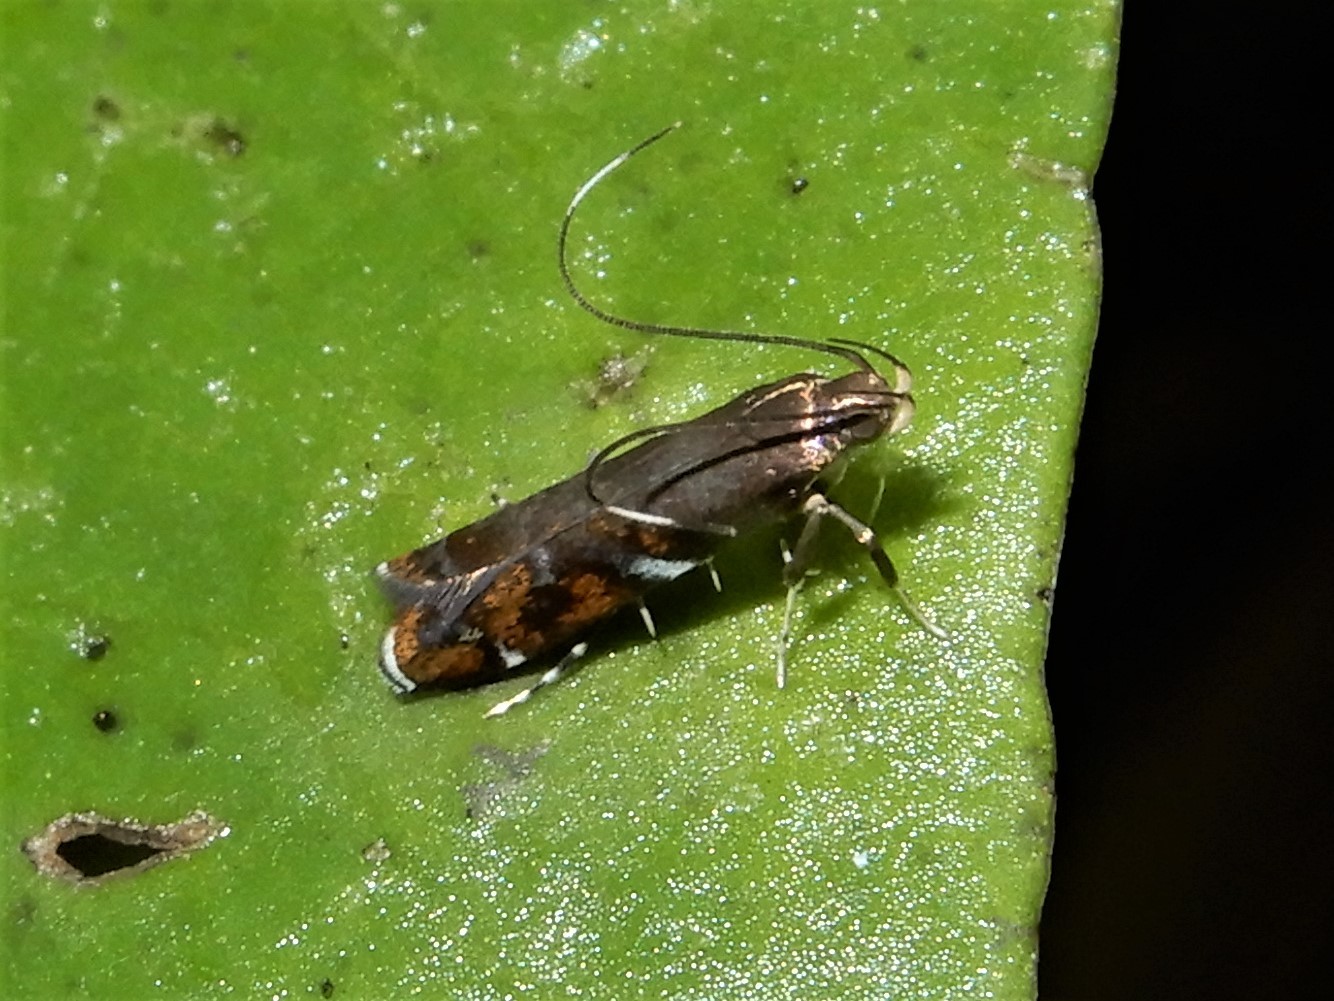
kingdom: Animalia
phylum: Arthropoda
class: Insecta
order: Lepidoptera
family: Depressariidae
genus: Compsistis
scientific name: Compsistis bifaciella
